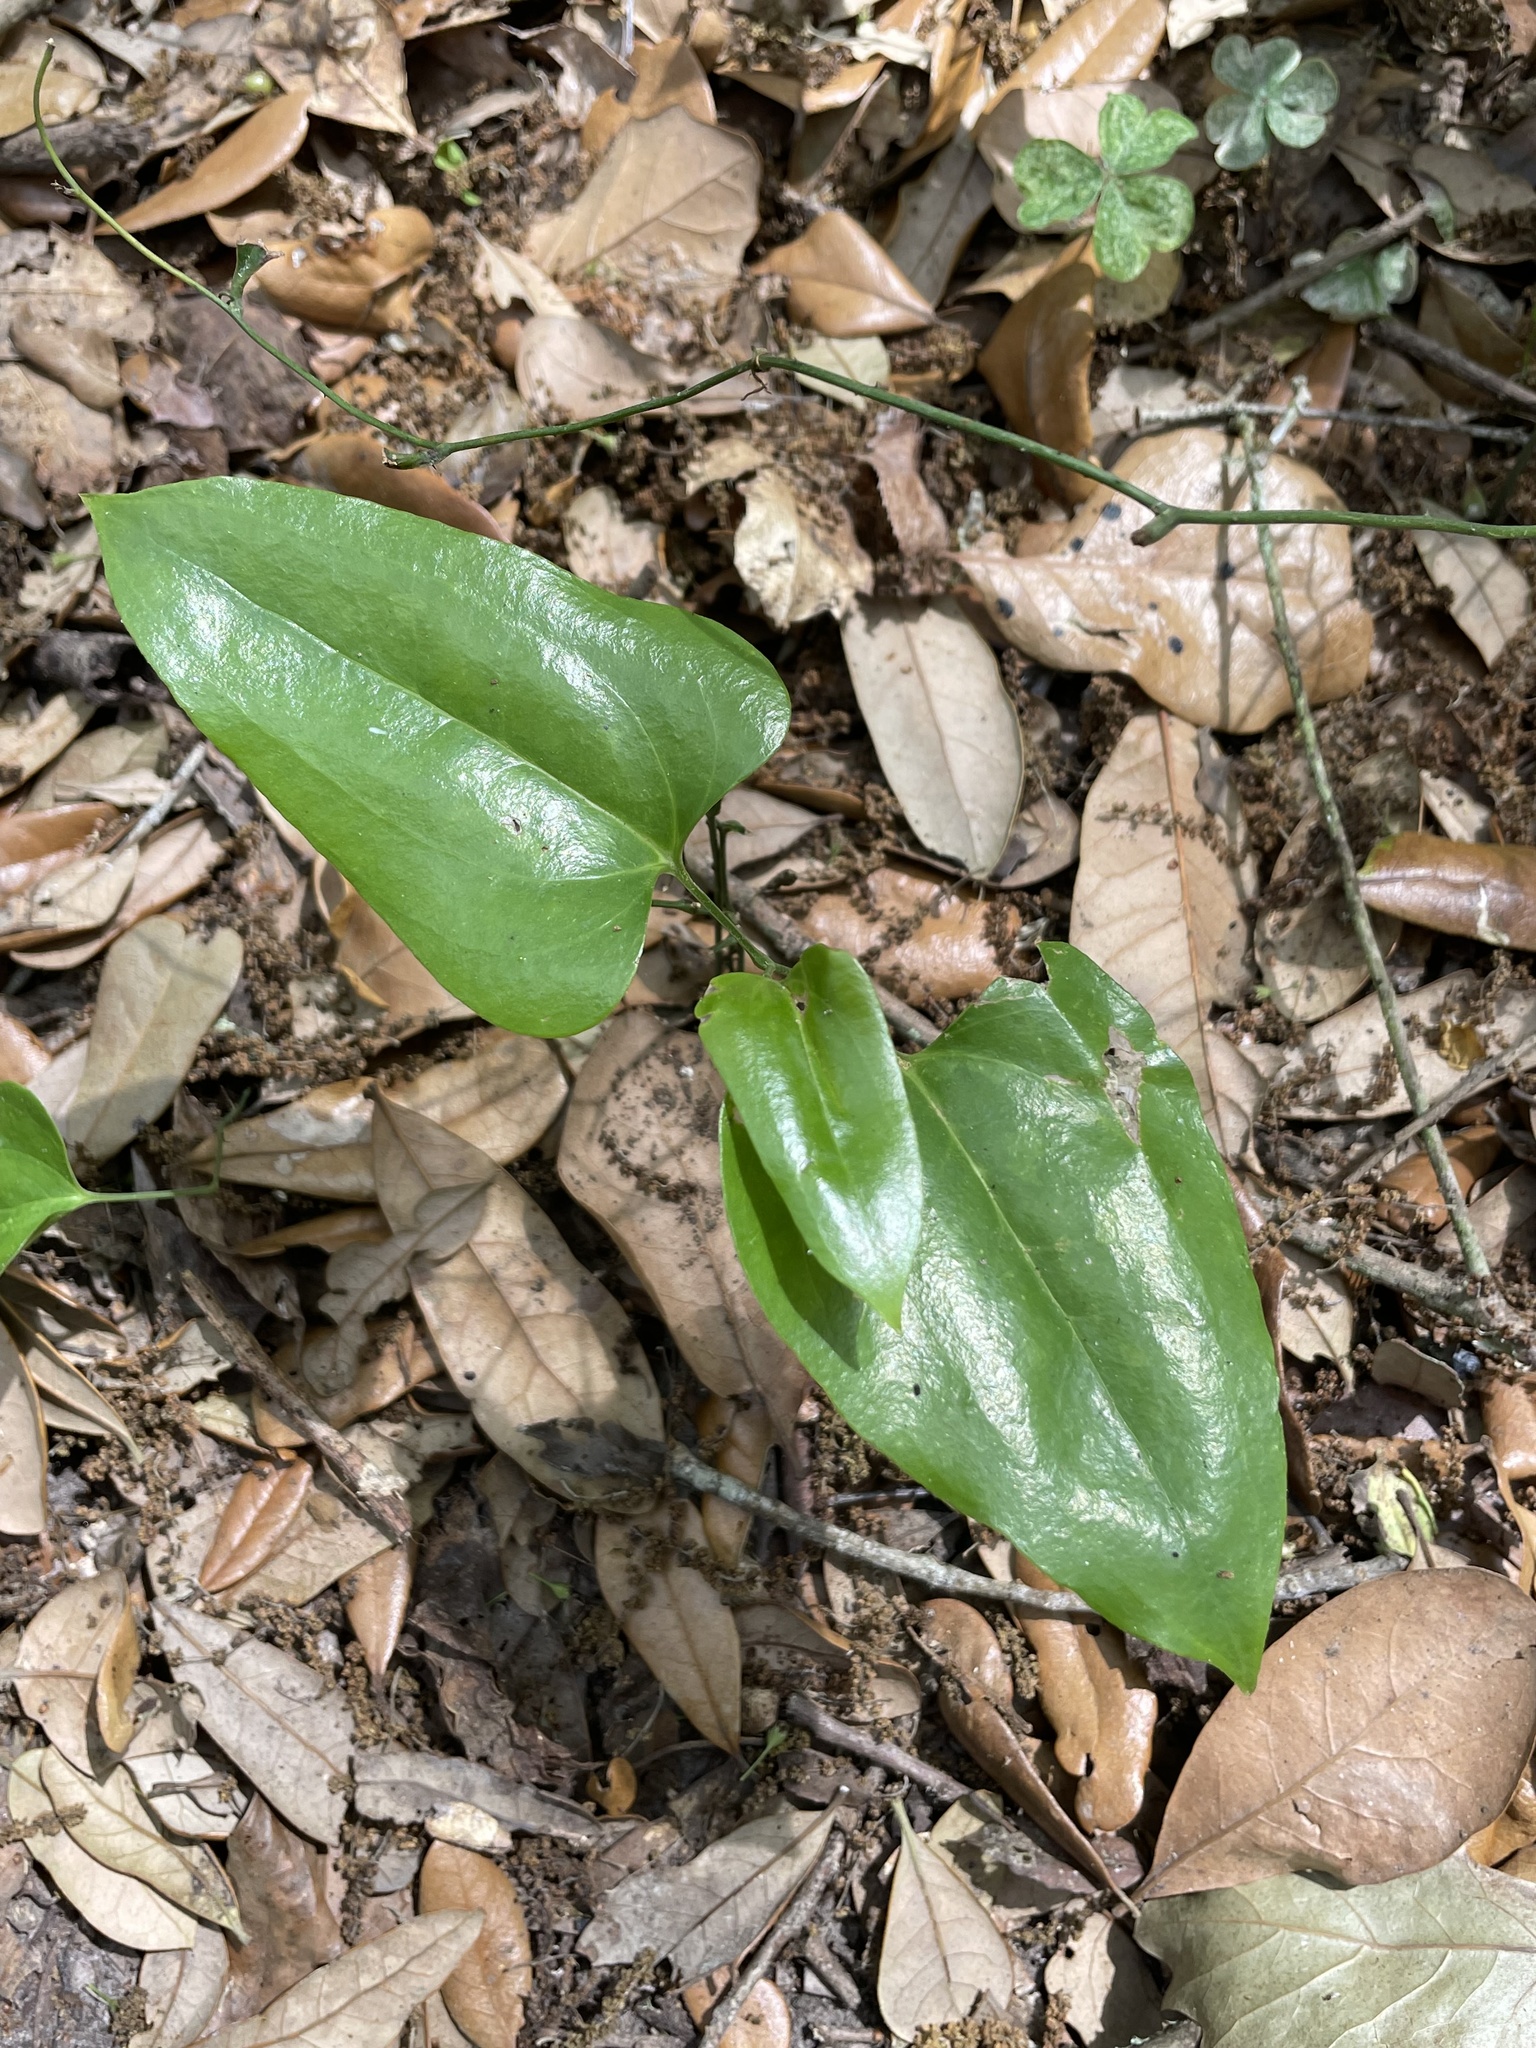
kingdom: Plantae
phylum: Tracheophyta
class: Liliopsida
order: Liliales
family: Smilacaceae
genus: Smilax
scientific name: Smilax maritima
